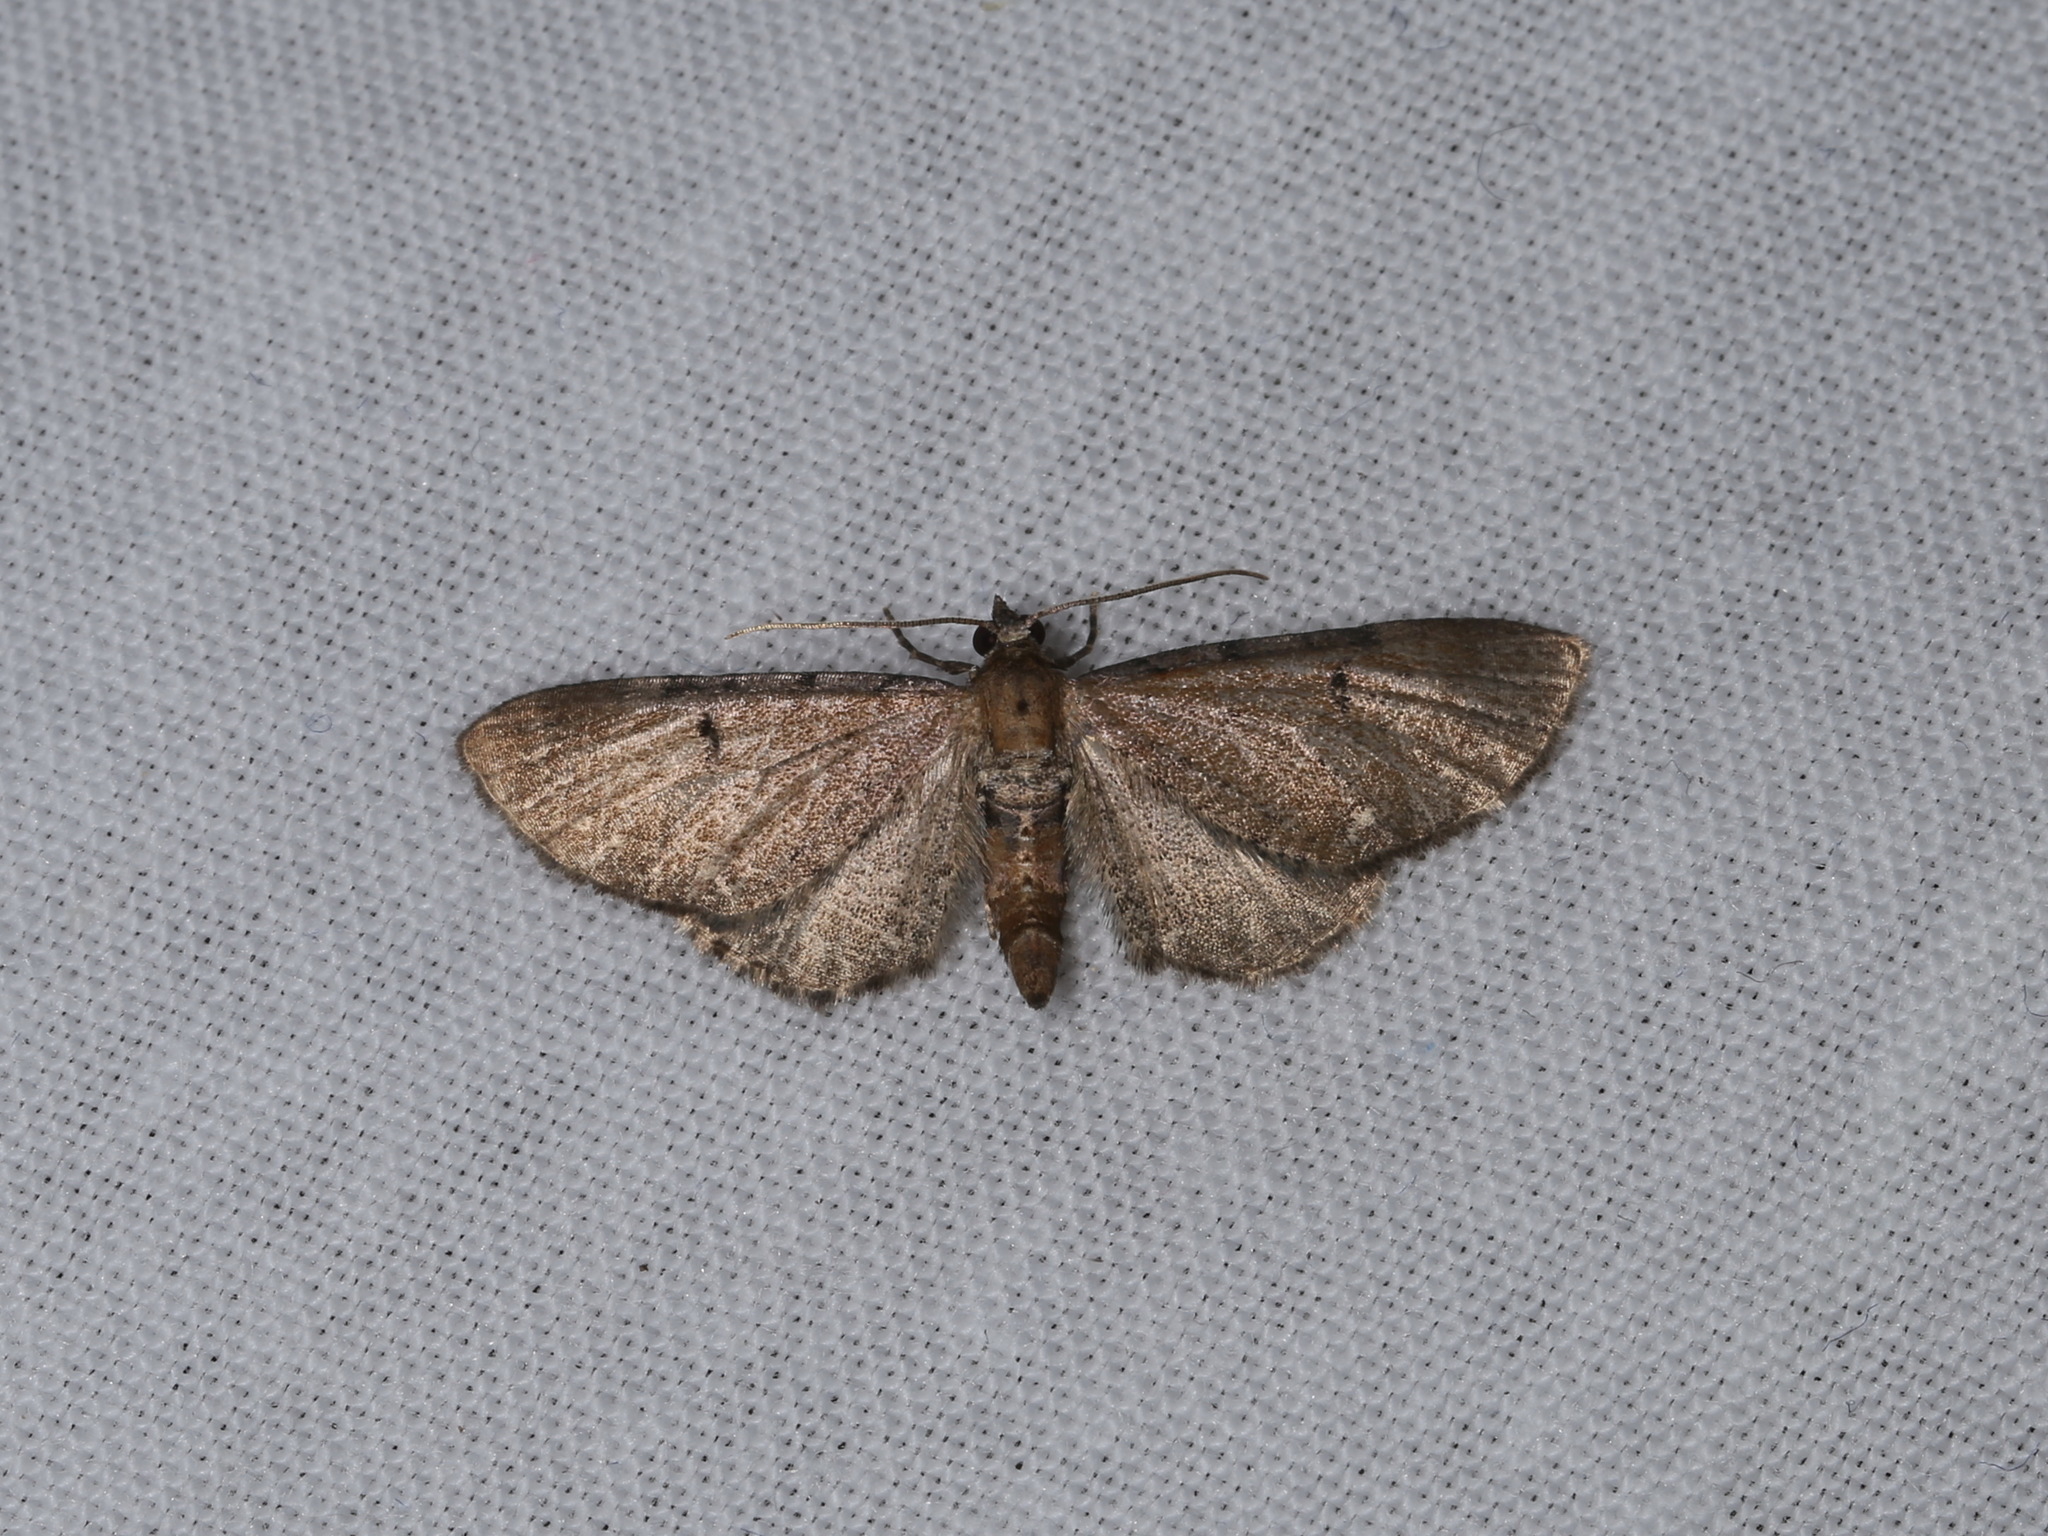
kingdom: Animalia
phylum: Arthropoda
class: Insecta
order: Lepidoptera
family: Geometridae
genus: Eupithecia
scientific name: Eupithecia absinthiata
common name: Wormwood pug
